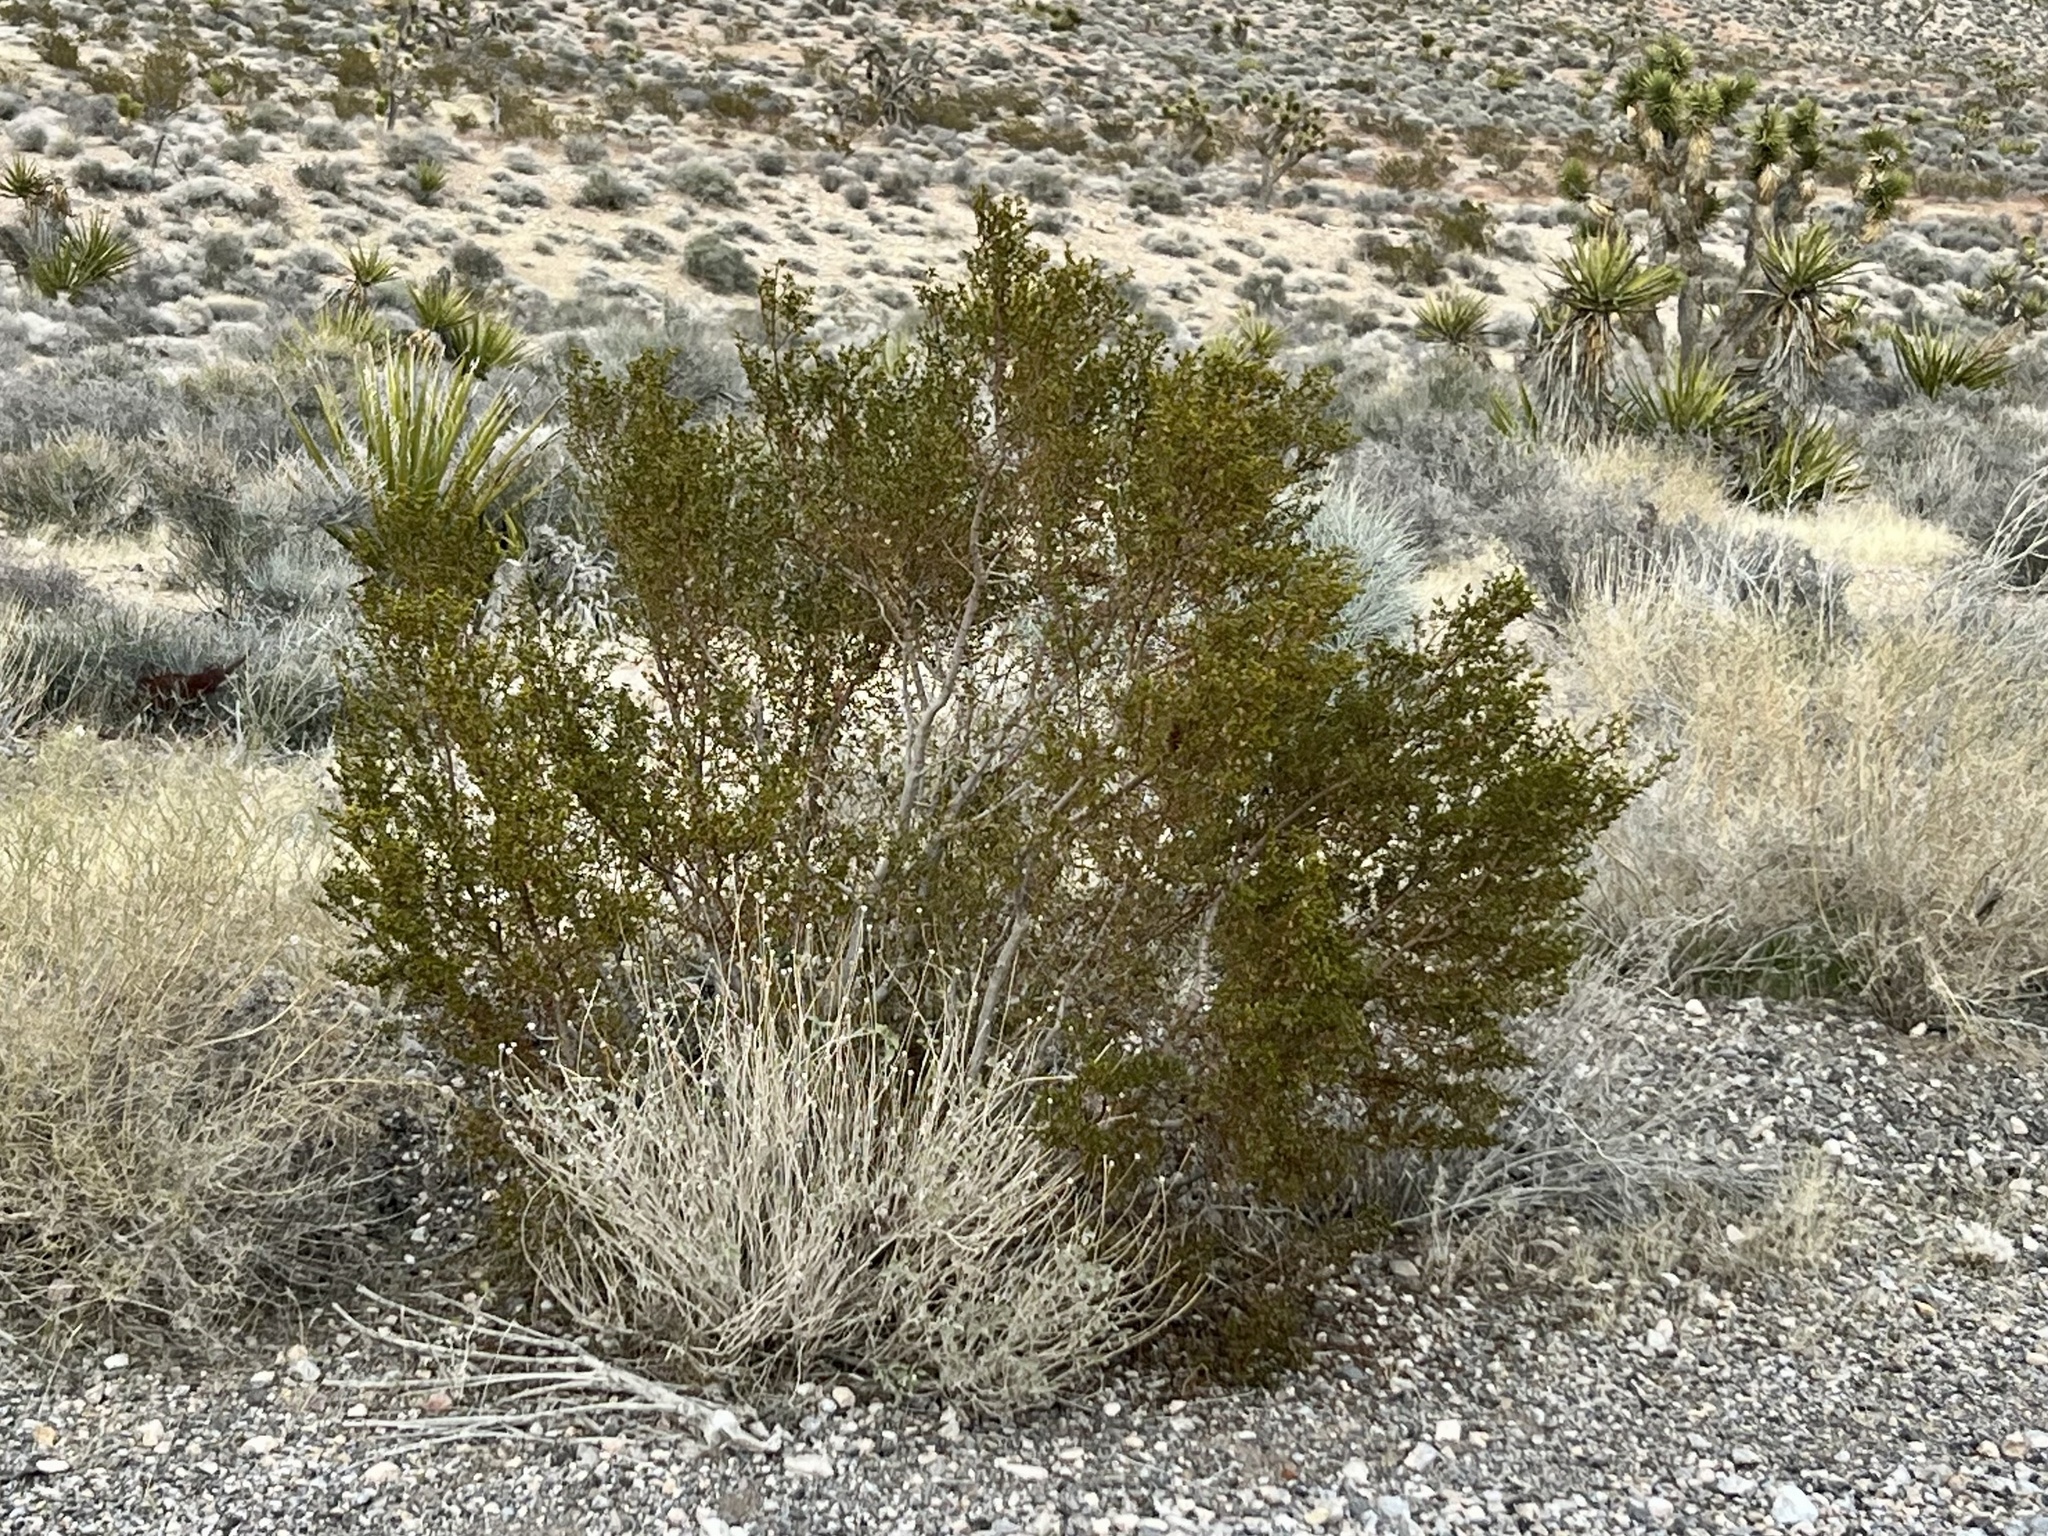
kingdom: Plantae
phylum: Tracheophyta
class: Magnoliopsida
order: Zygophyllales
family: Zygophyllaceae
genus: Larrea
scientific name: Larrea tridentata
